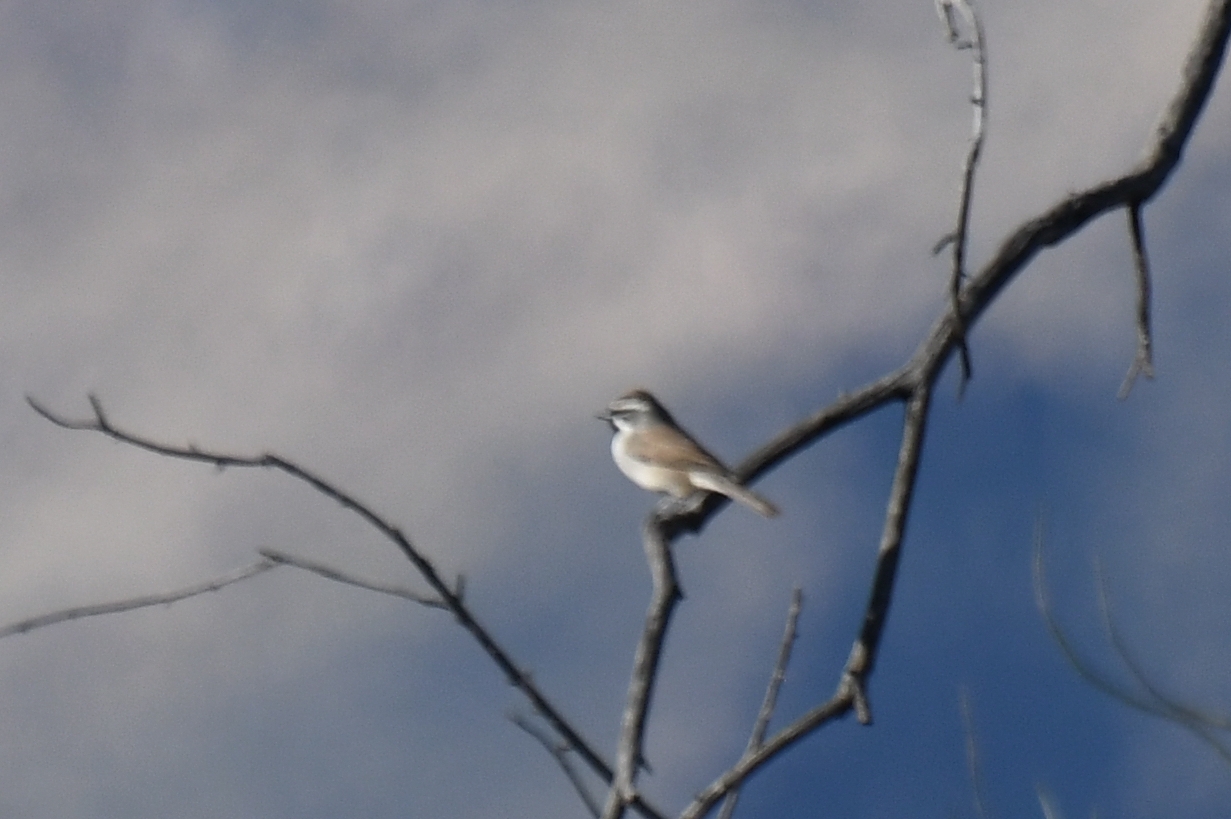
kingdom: Animalia
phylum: Chordata
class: Aves
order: Passeriformes
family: Passerellidae
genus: Amphispiza
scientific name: Amphispiza bilineata
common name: Black-throated sparrow
